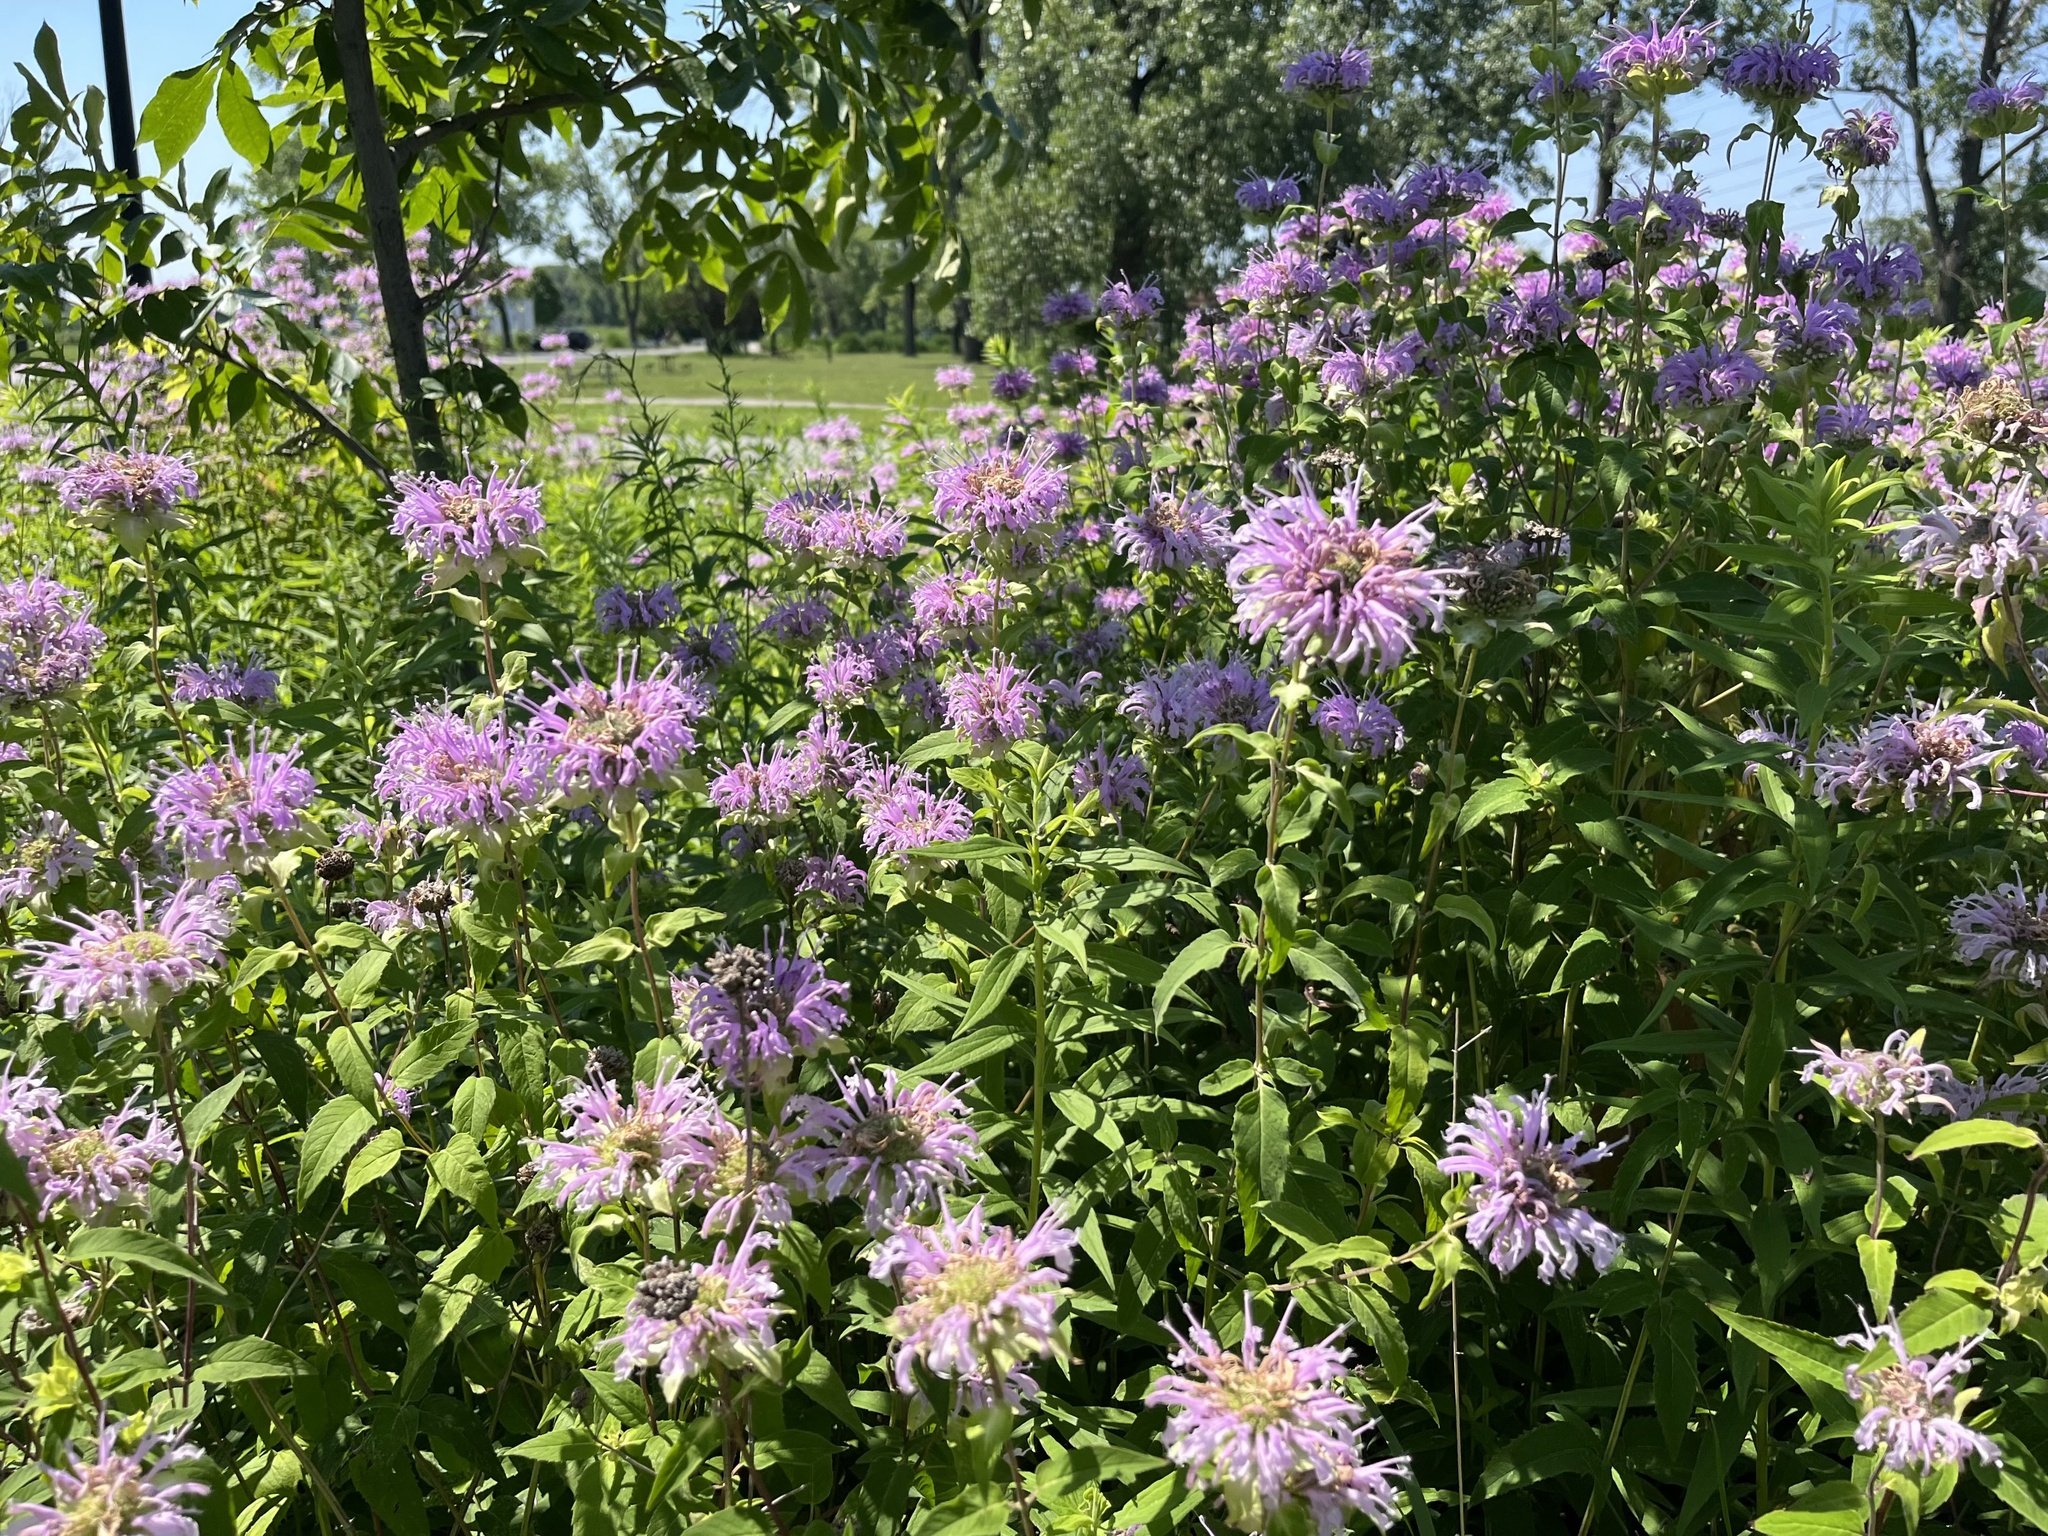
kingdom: Plantae
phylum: Tracheophyta
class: Magnoliopsida
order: Lamiales
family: Lamiaceae
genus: Monarda
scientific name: Monarda fistulosa
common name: Purple beebalm
